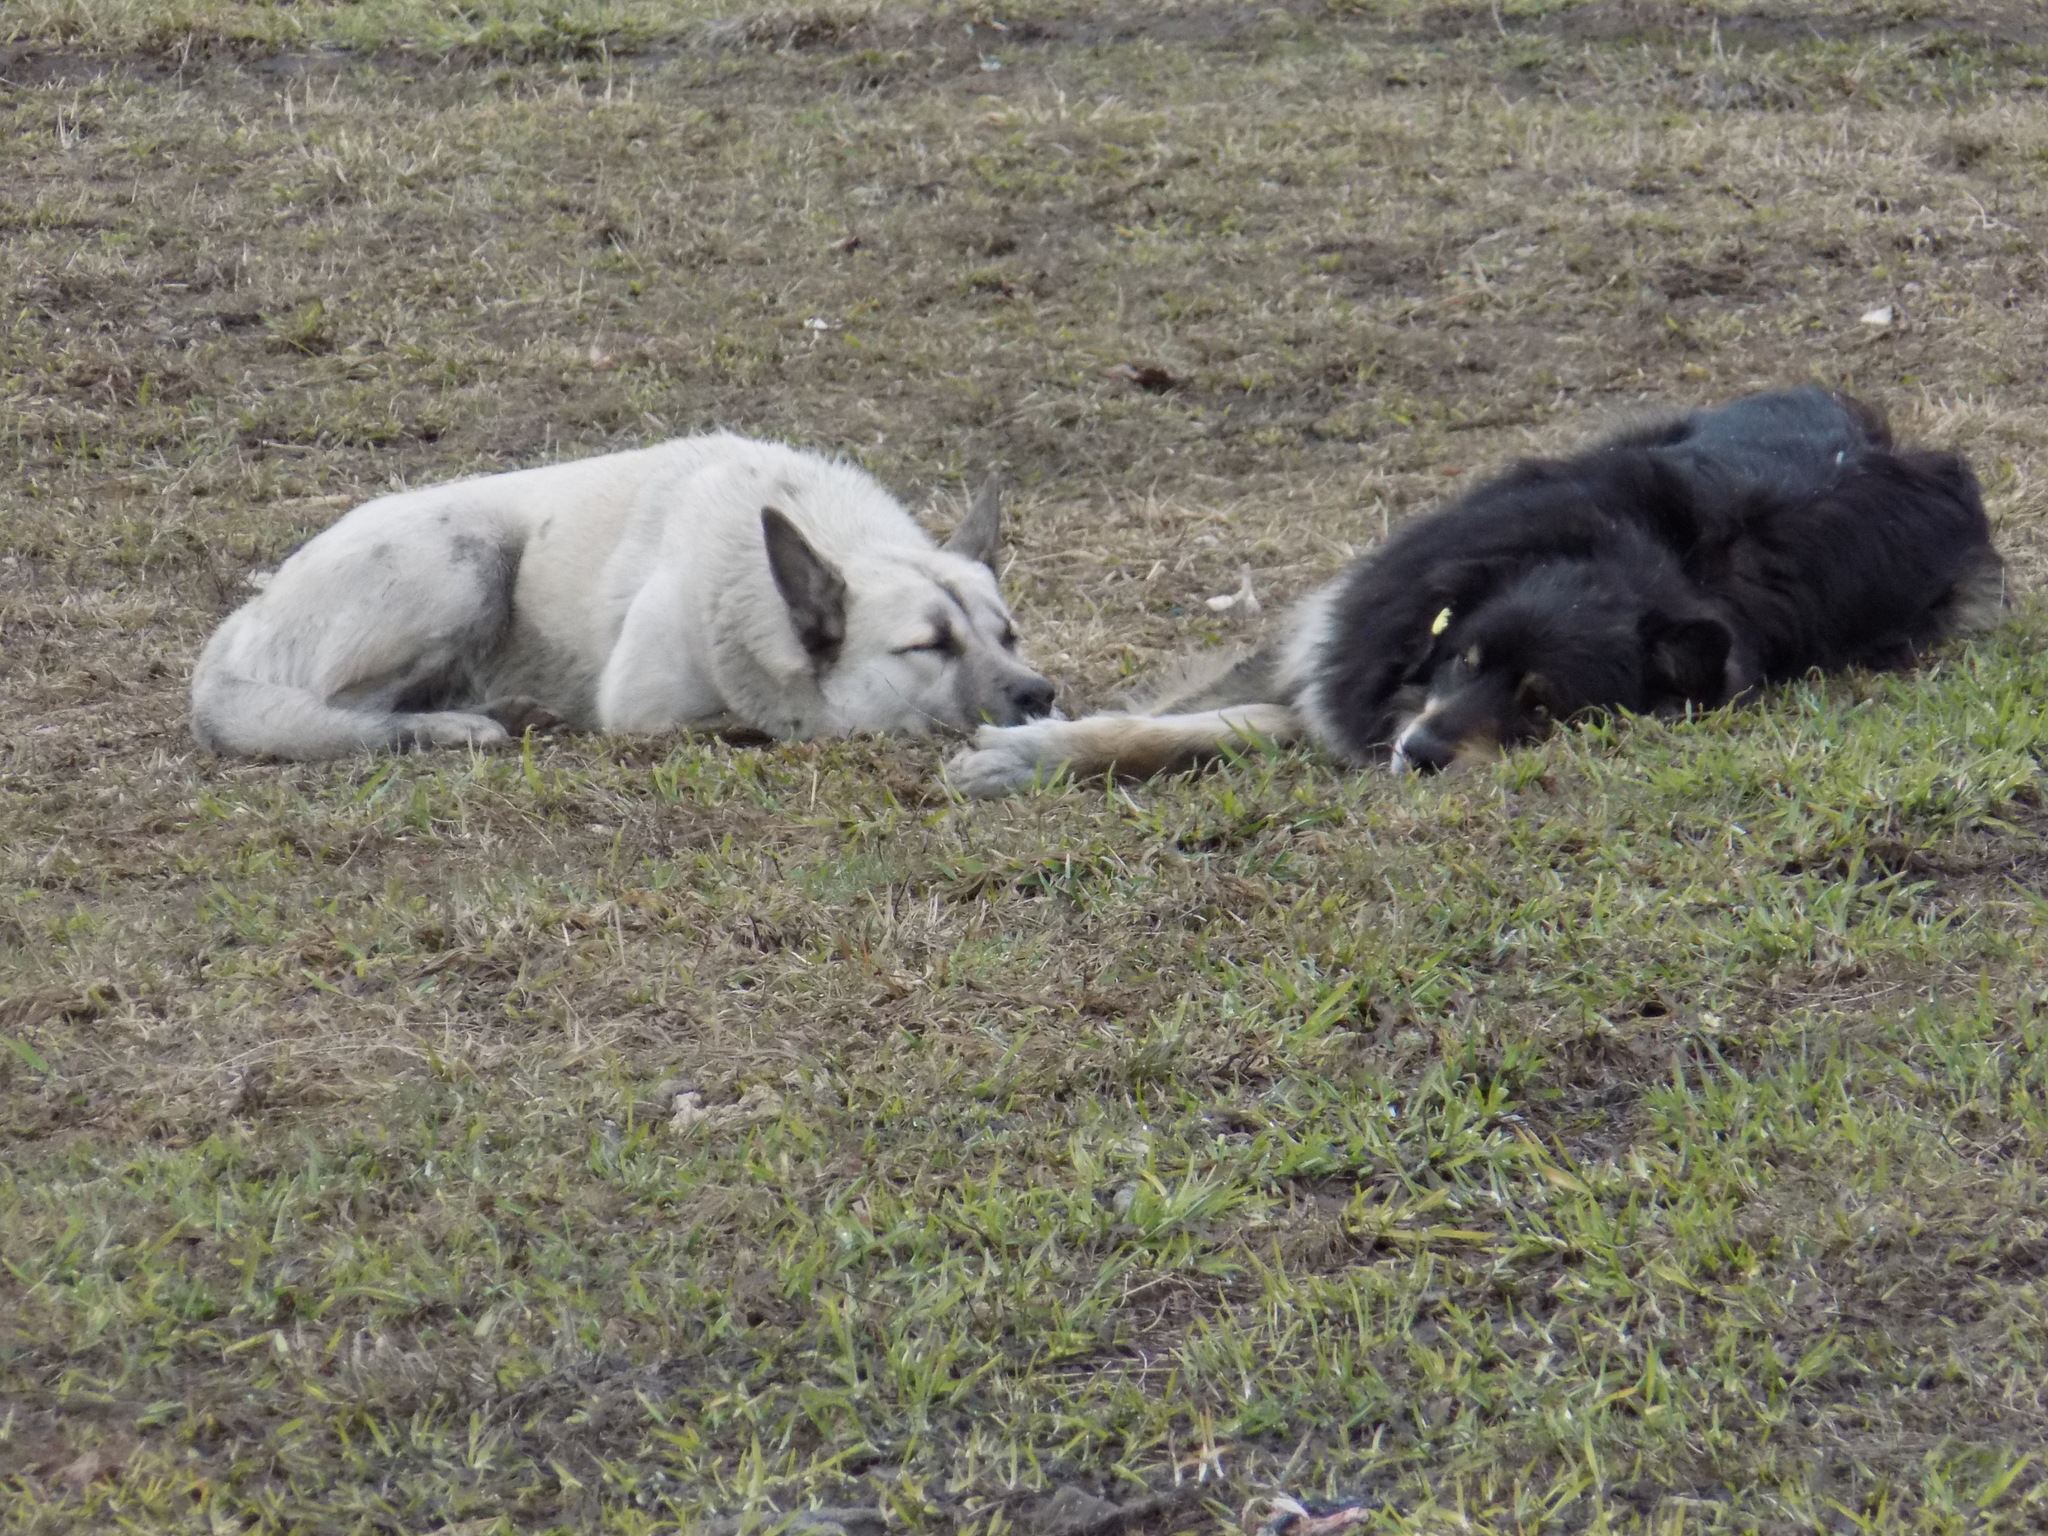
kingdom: Animalia
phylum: Chordata
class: Mammalia
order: Carnivora
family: Canidae
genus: Canis
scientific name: Canis lupus
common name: Gray wolf
